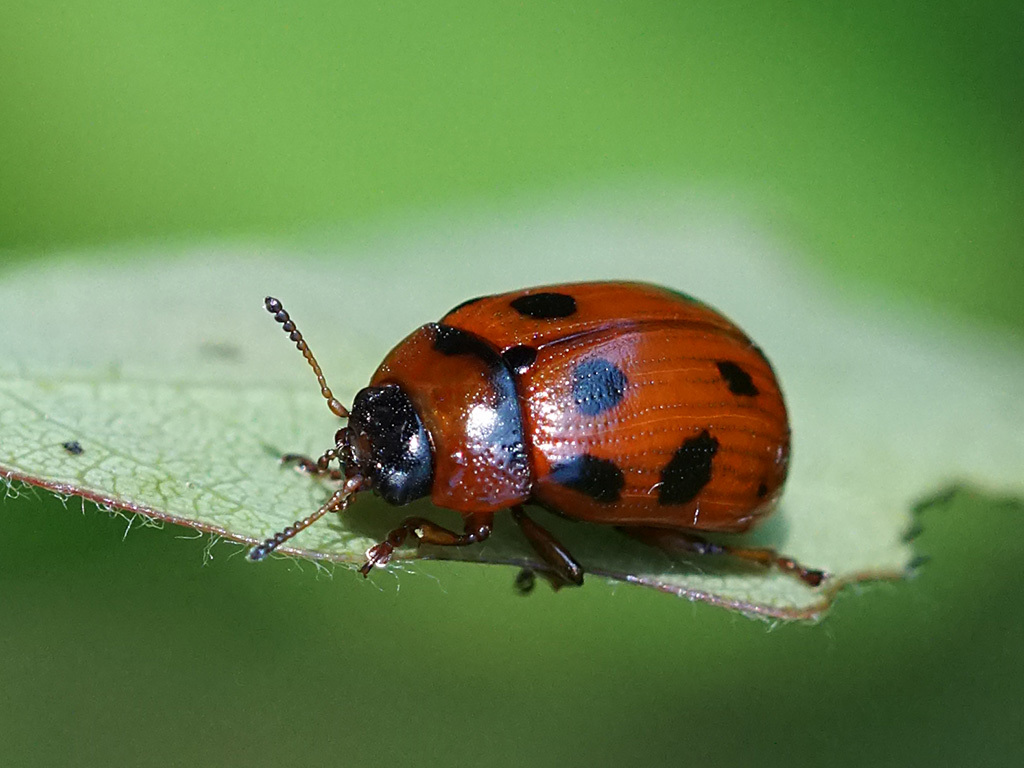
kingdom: Animalia
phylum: Arthropoda
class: Insecta
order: Coleoptera
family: Chrysomelidae
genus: Gonioctena
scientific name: Gonioctena decemnotata
